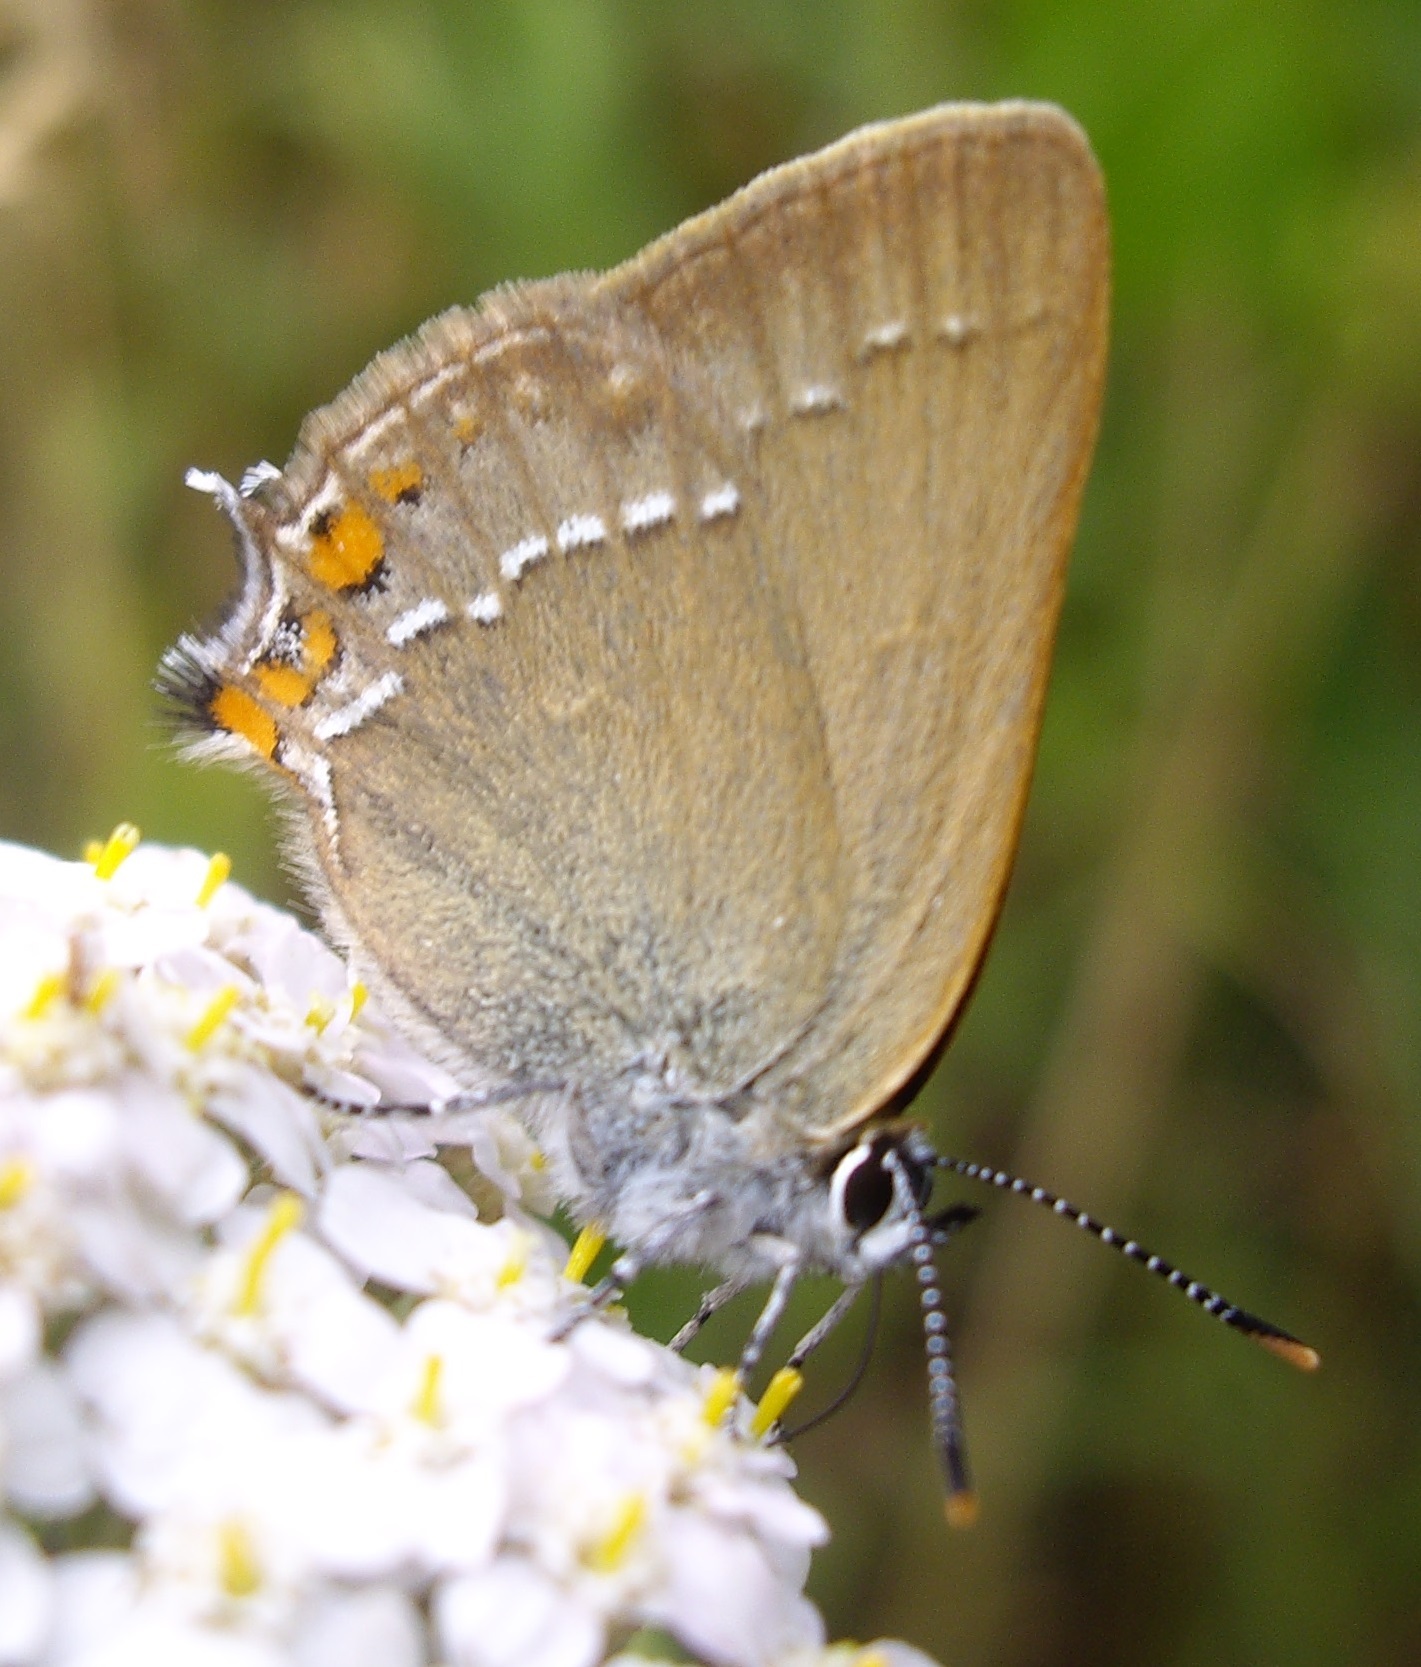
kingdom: Animalia
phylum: Arthropoda
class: Insecta
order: Lepidoptera
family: Lycaenidae
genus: Strymon
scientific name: Strymon acaciae
